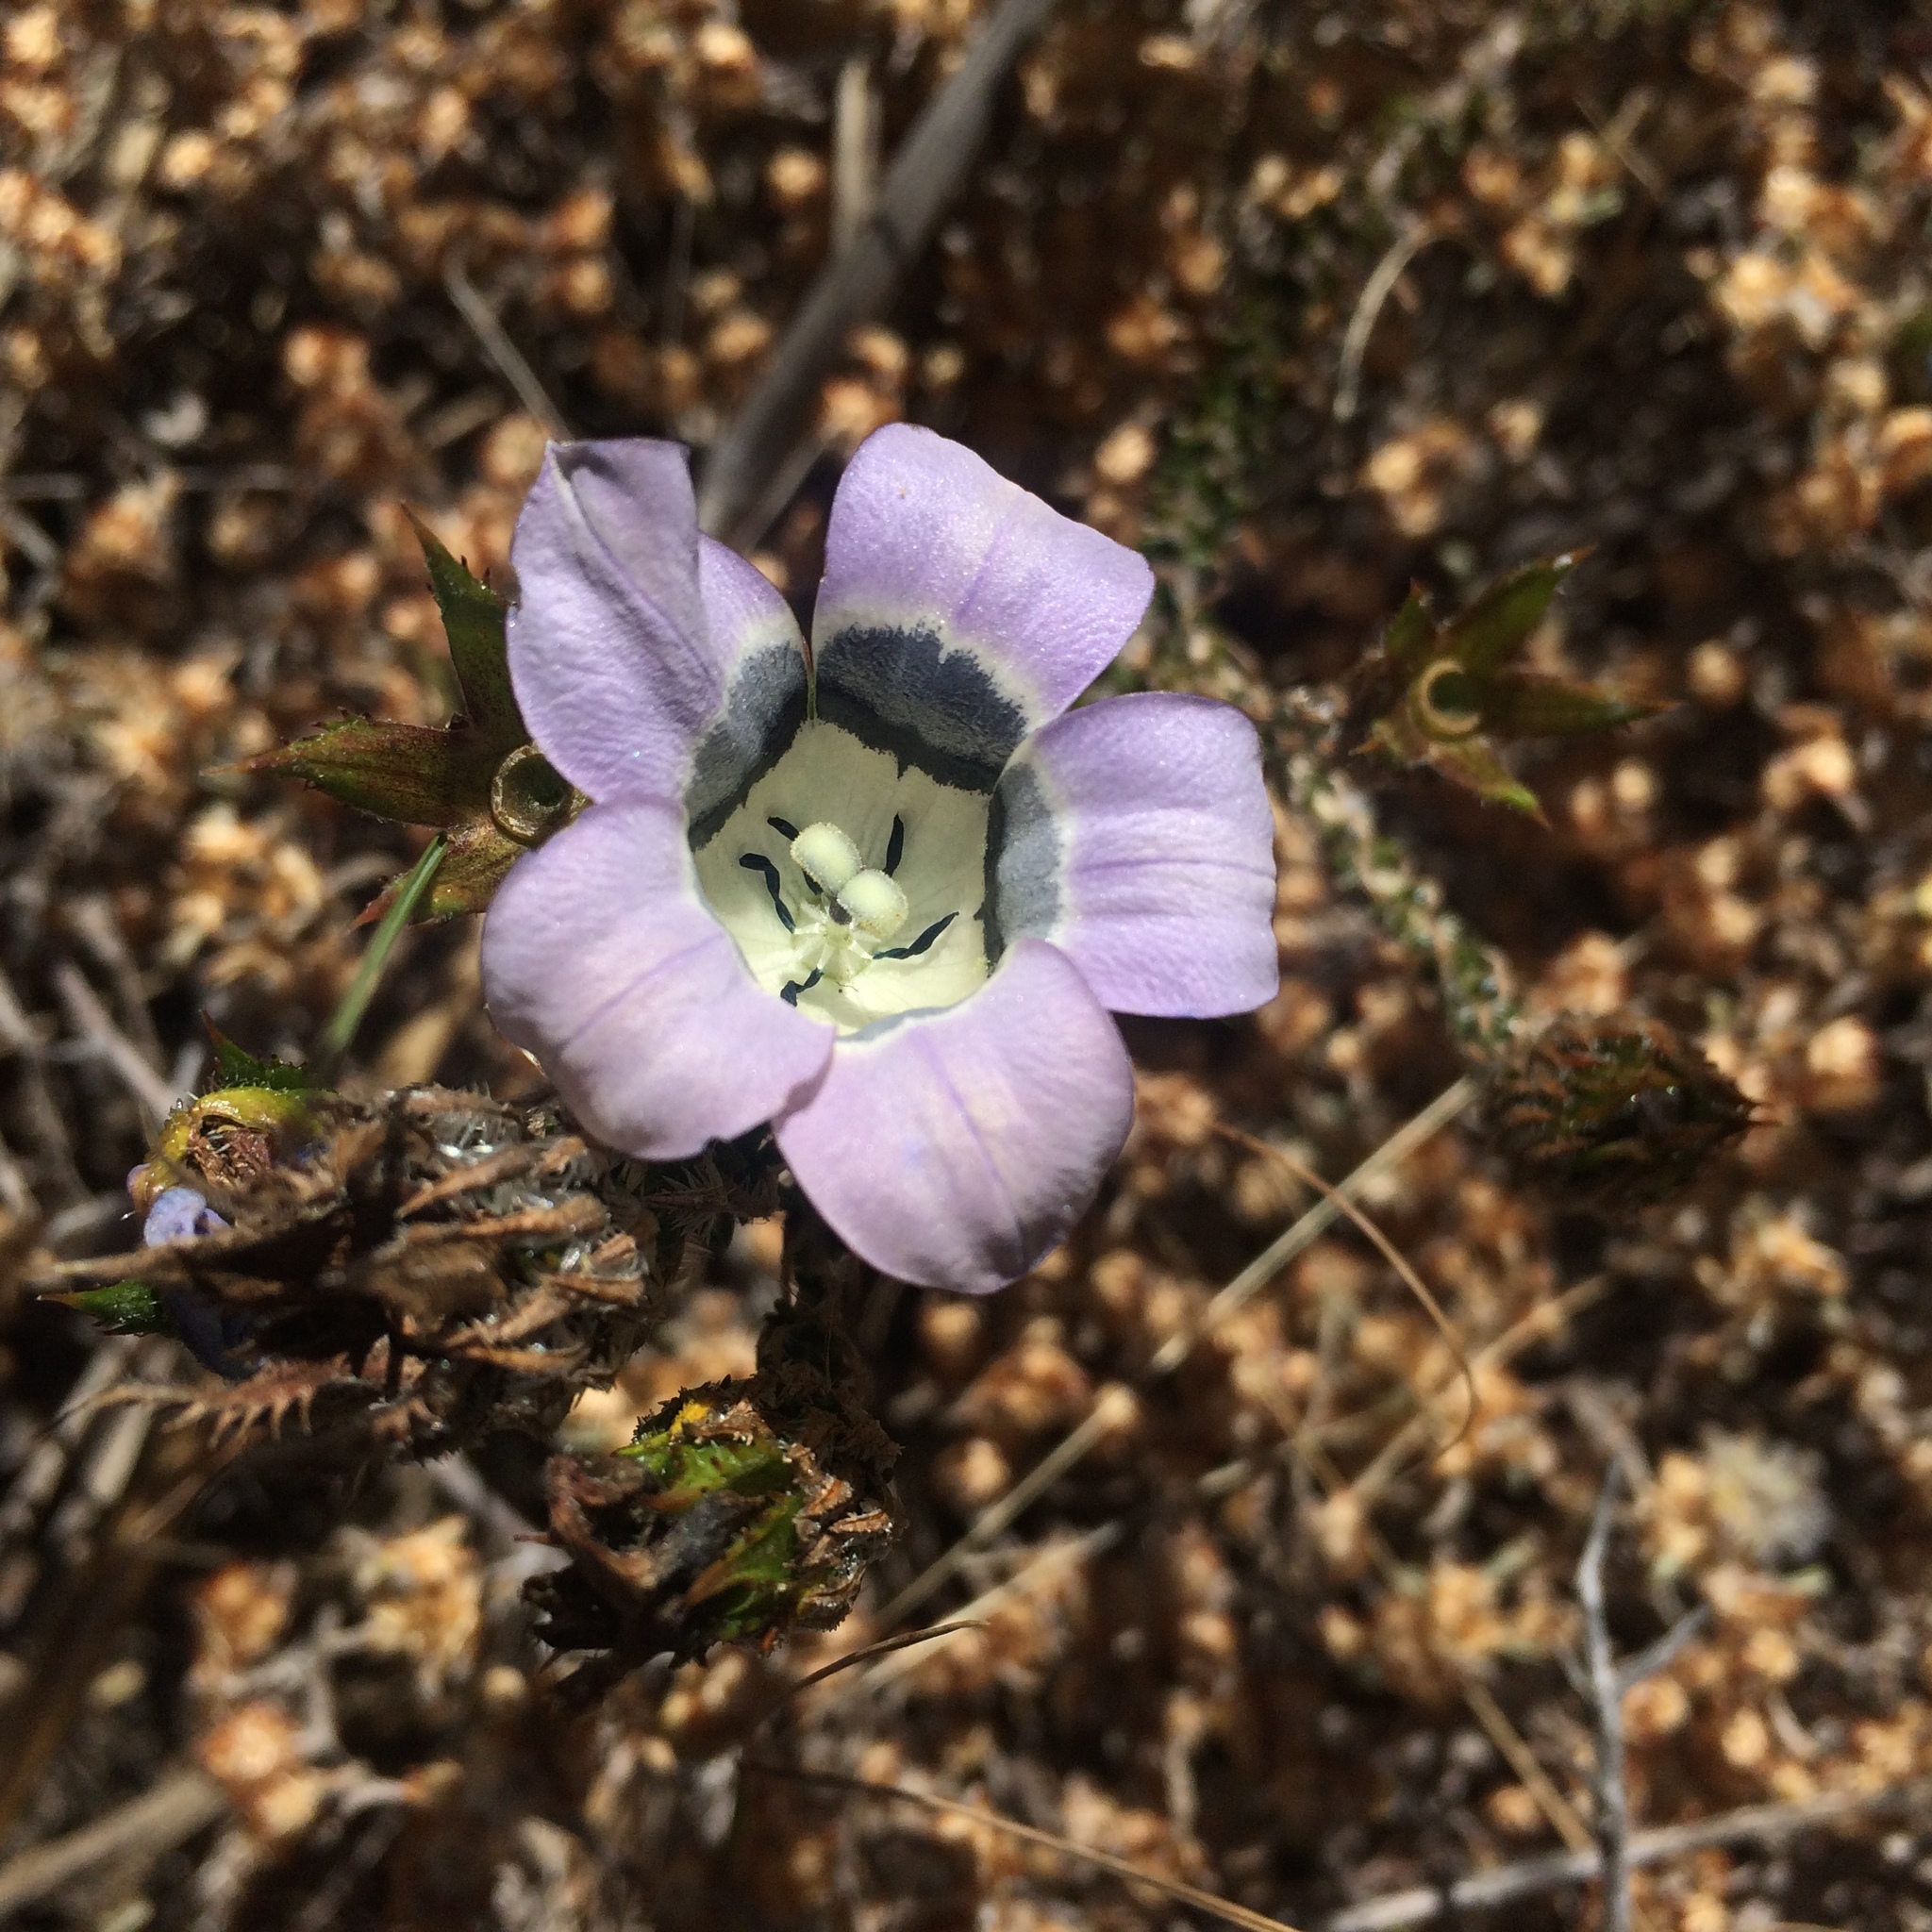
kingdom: Plantae
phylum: Tracheophyta
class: Magnoliopsida
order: Asterales
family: Campanulaceae
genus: Roella
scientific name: Roella ciliata
